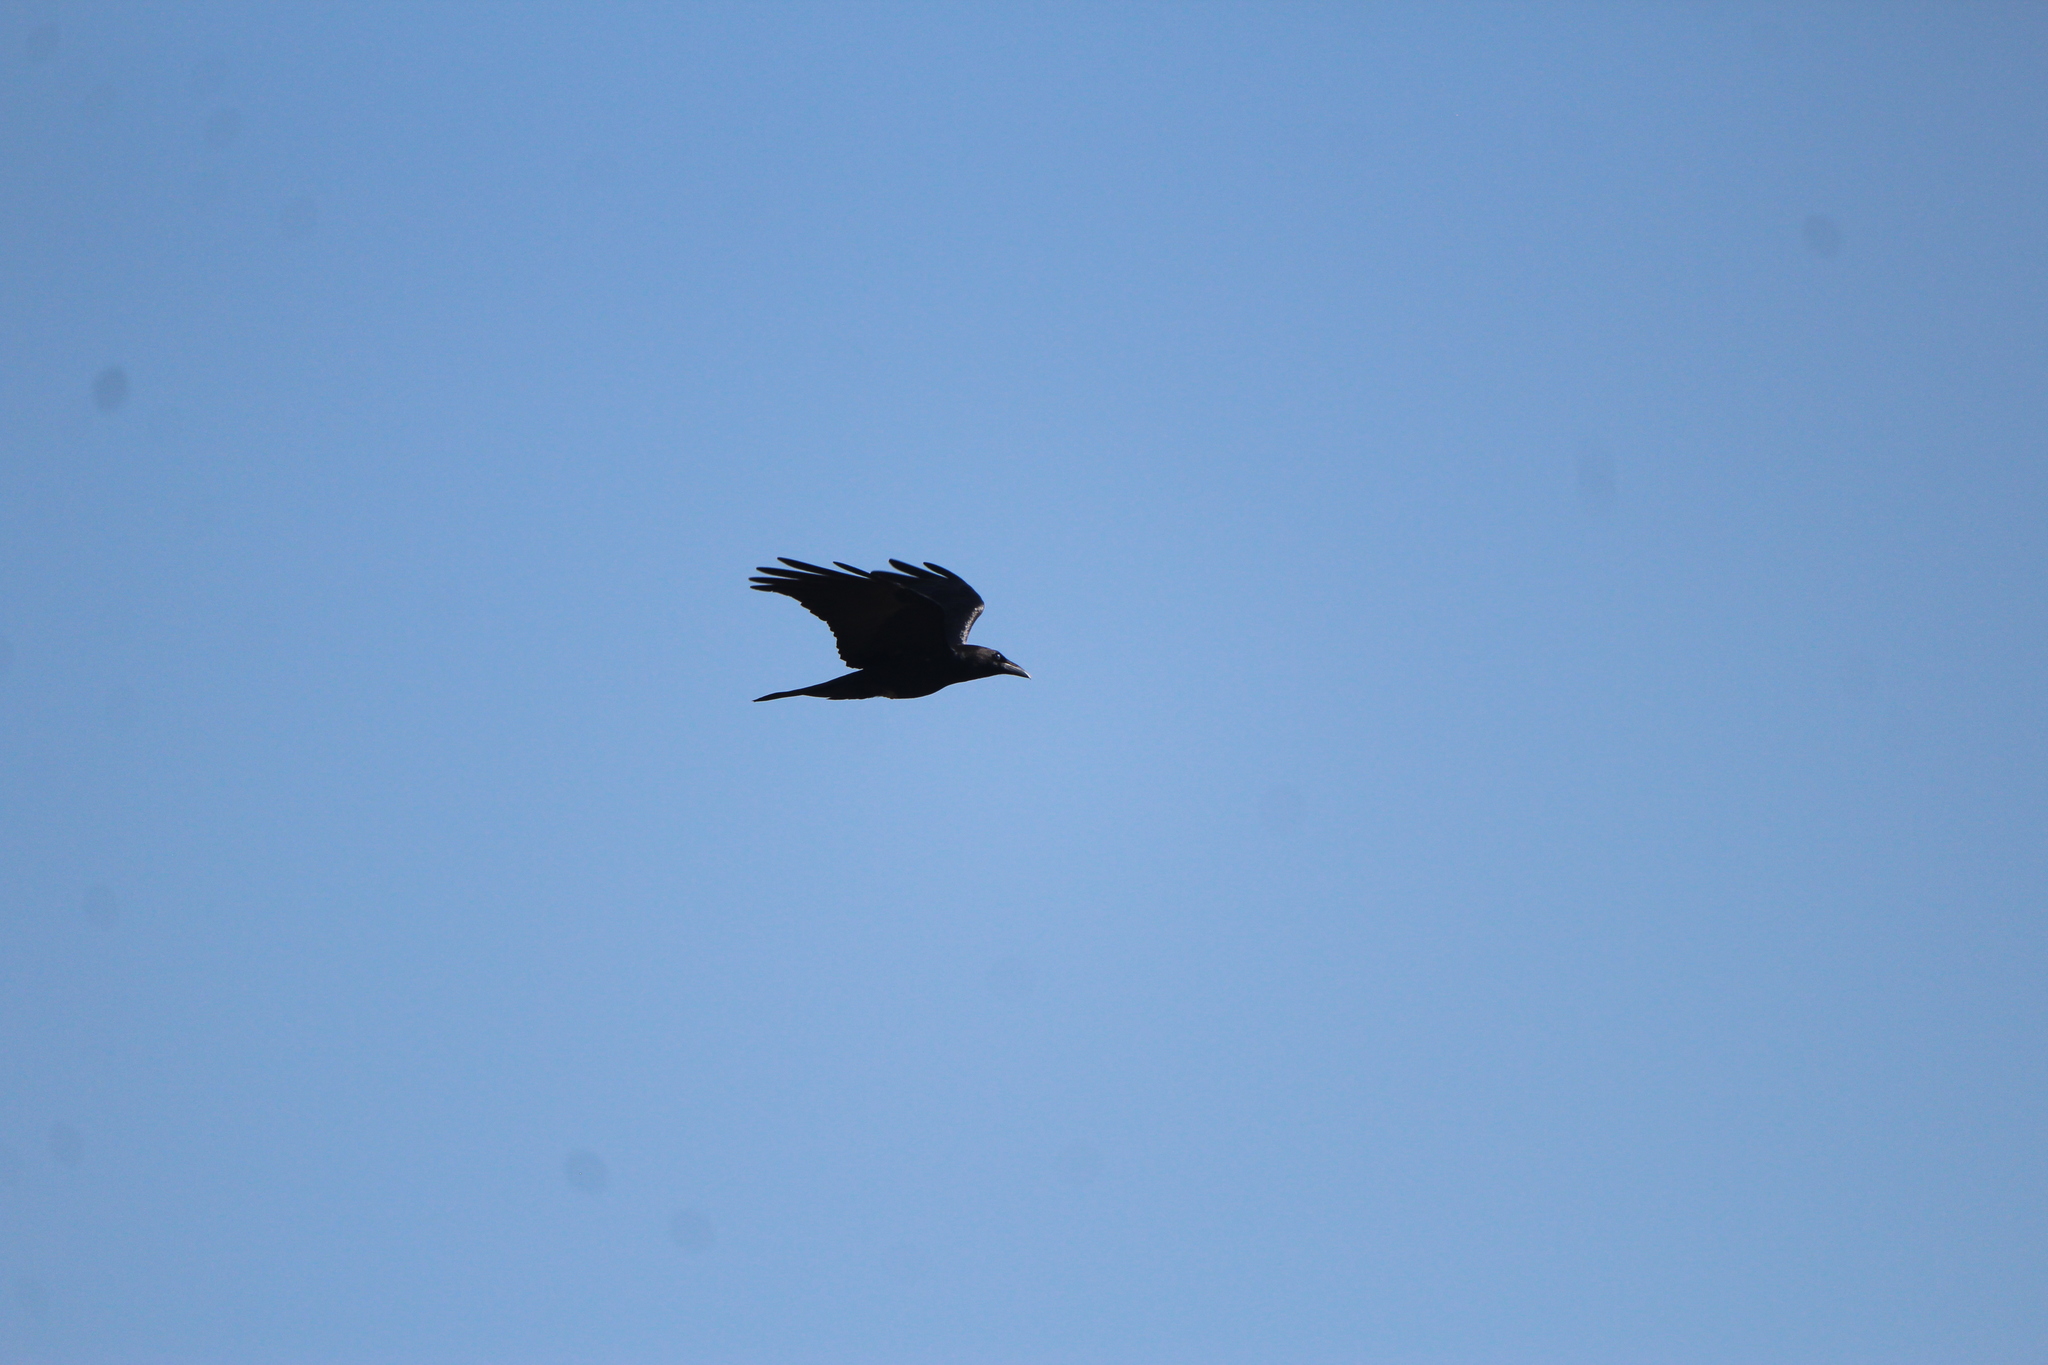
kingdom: Animalia
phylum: Chordata
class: Aves
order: Passeriformes
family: Corvidae
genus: Corvus
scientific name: Corvus corax
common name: Common raven
